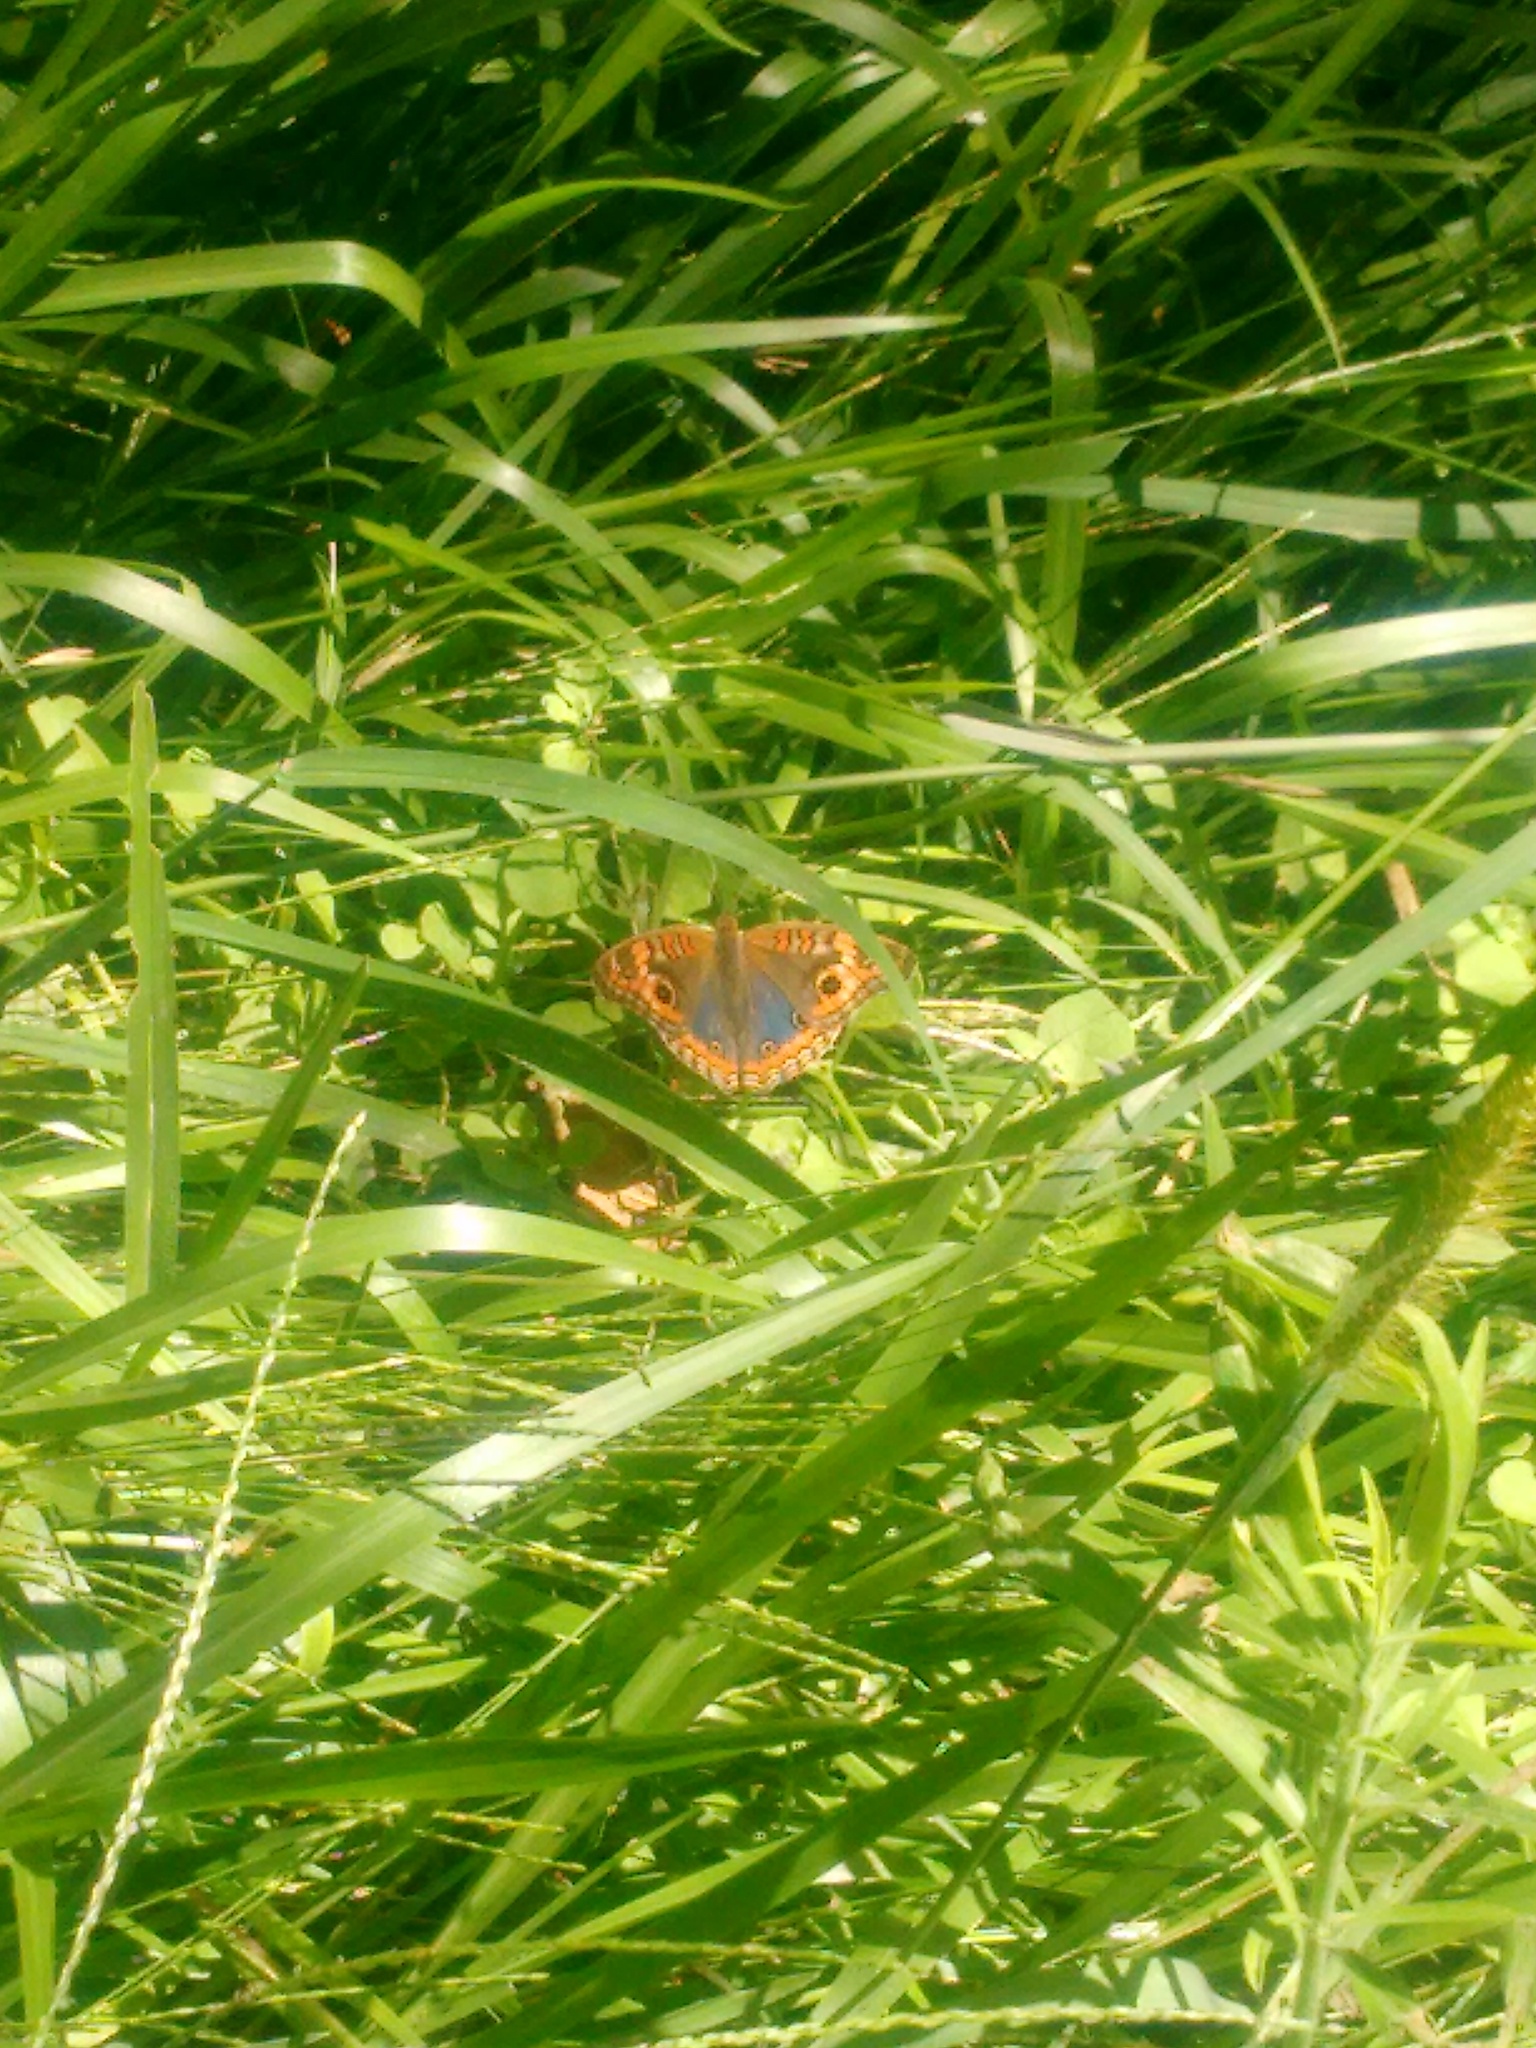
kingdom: Animalia
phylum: Arthropoda
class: Insecta
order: Lepidoptera
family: Nymphalidae
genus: Junonia
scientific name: Junonia lavinia
